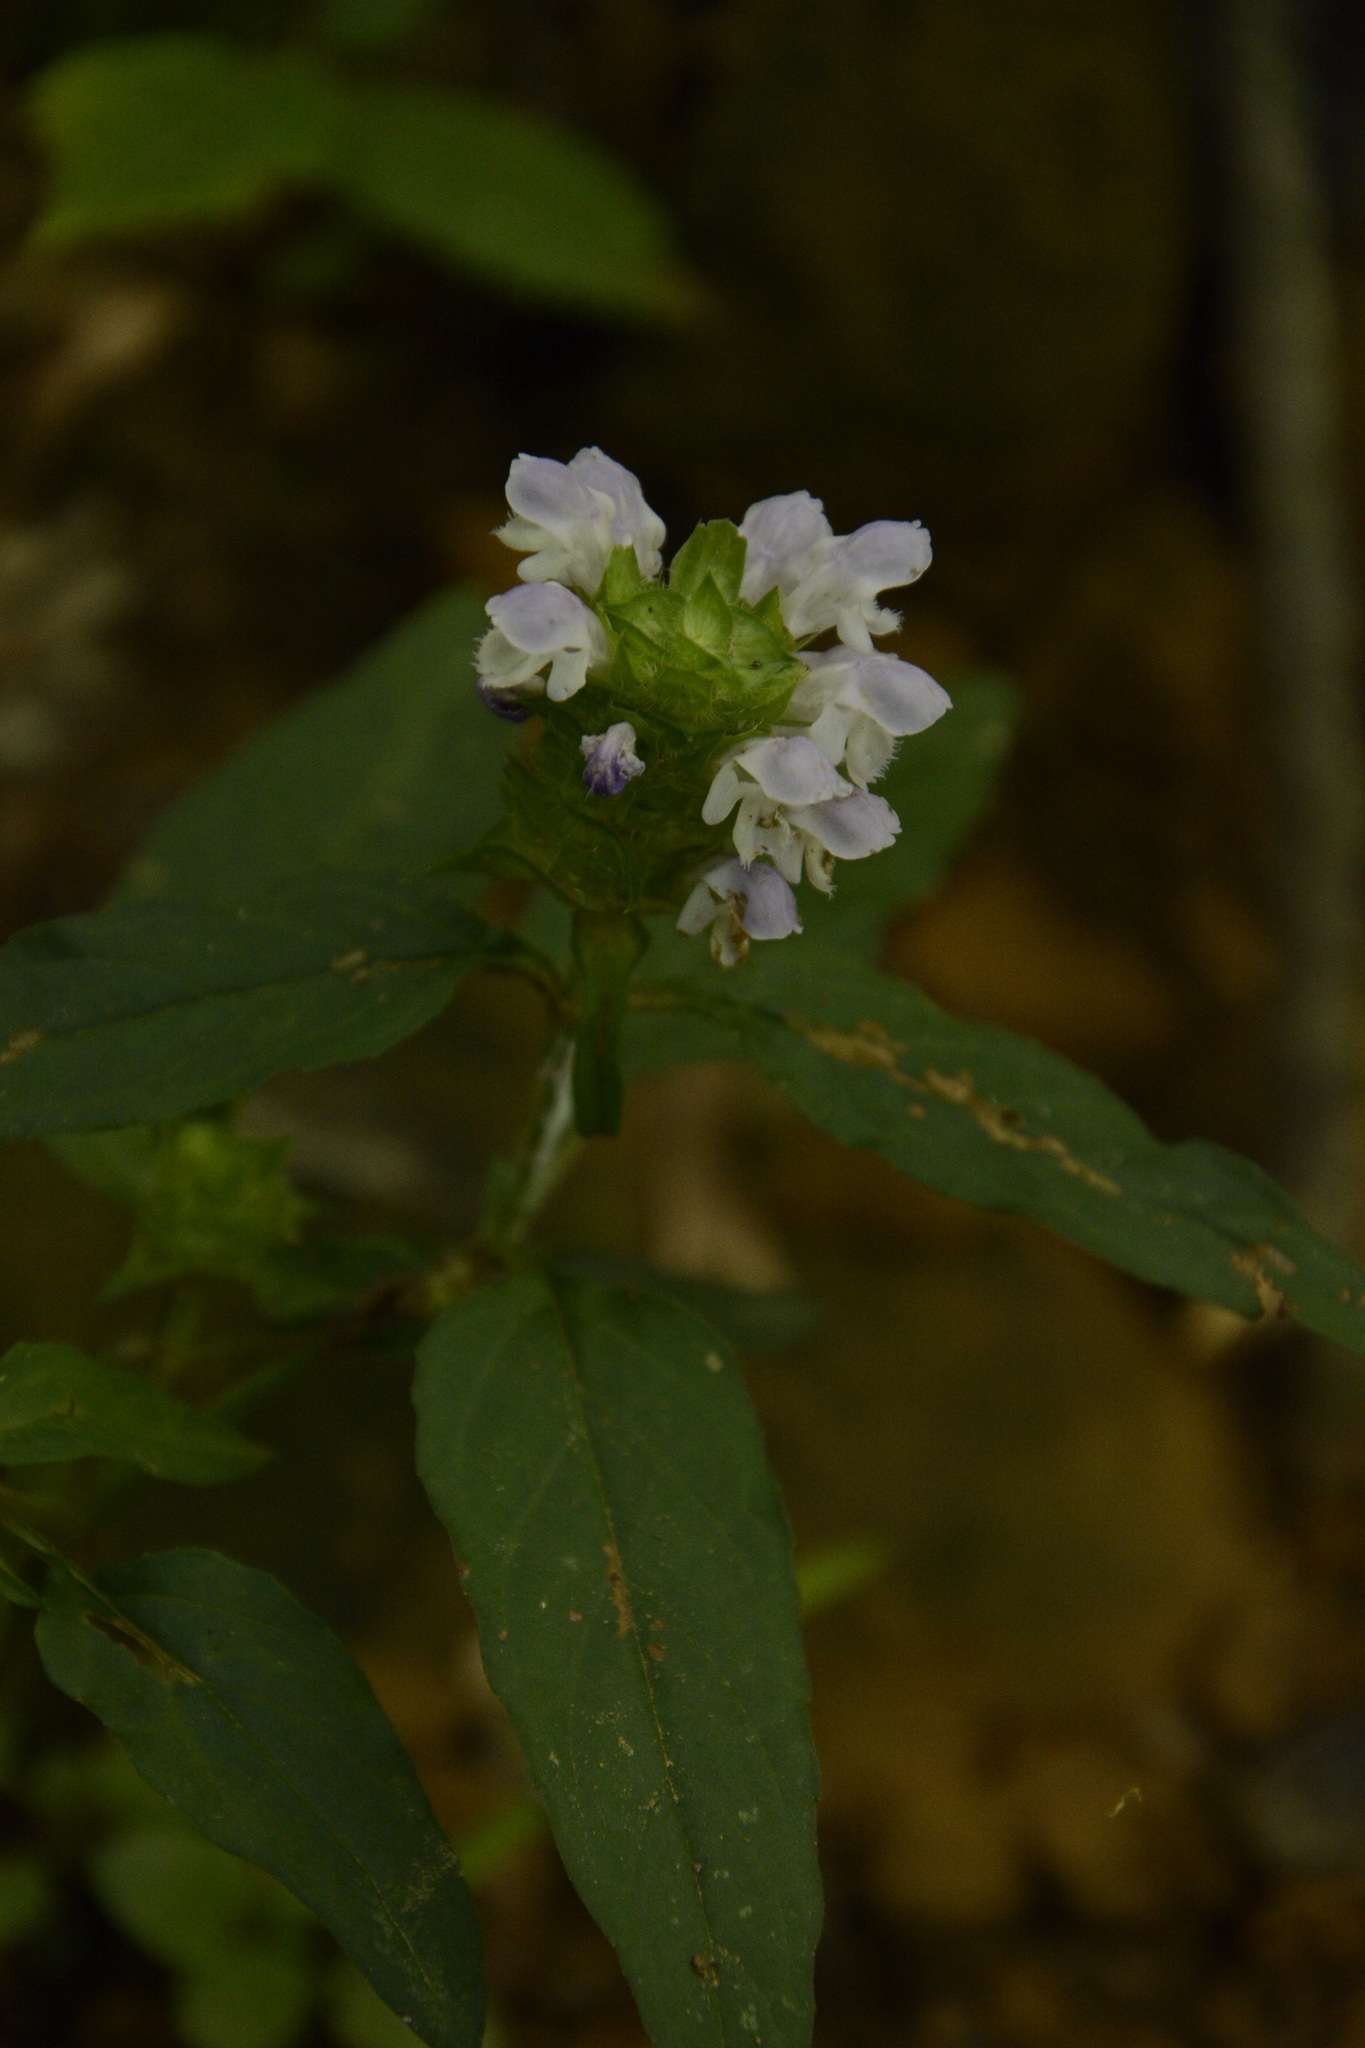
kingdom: Plantae
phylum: Tracheophyta
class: Magnoliopsida
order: Lamiales
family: Lamiaceae
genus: Prunella
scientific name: Prunella vulgaris
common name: Heal-all
